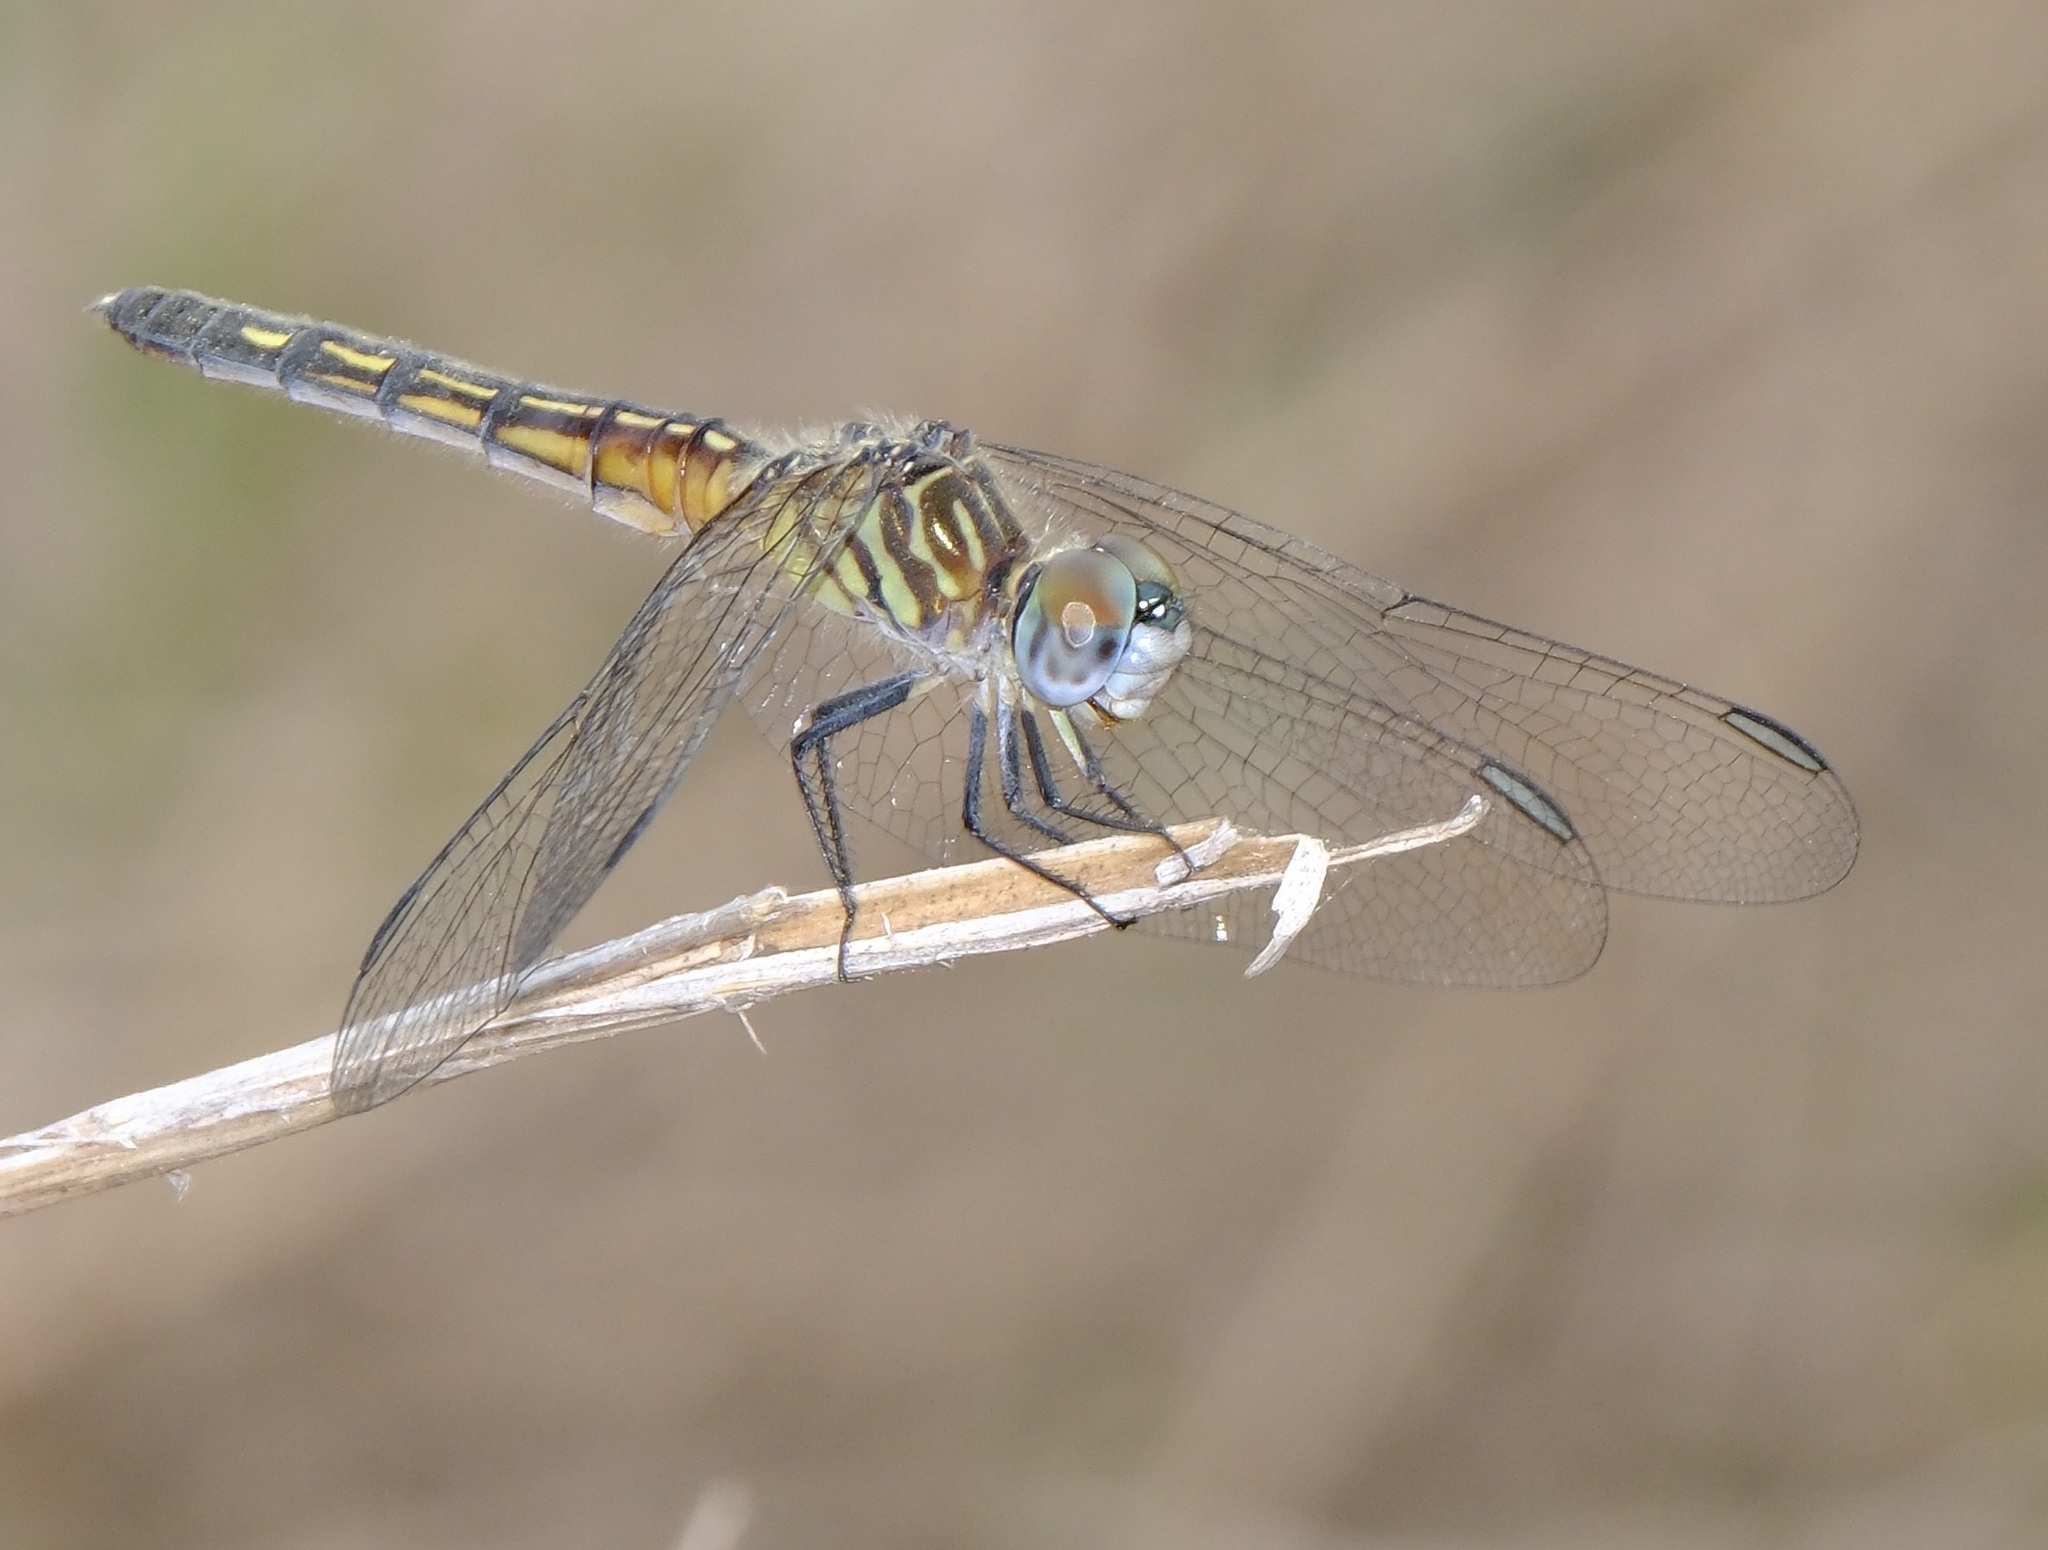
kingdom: Animalia
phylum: Arthropoda
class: Insecta
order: Odonata
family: Libellulidae
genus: Pachydiplax
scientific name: Pachydiplax longipennis
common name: Blue dasher
